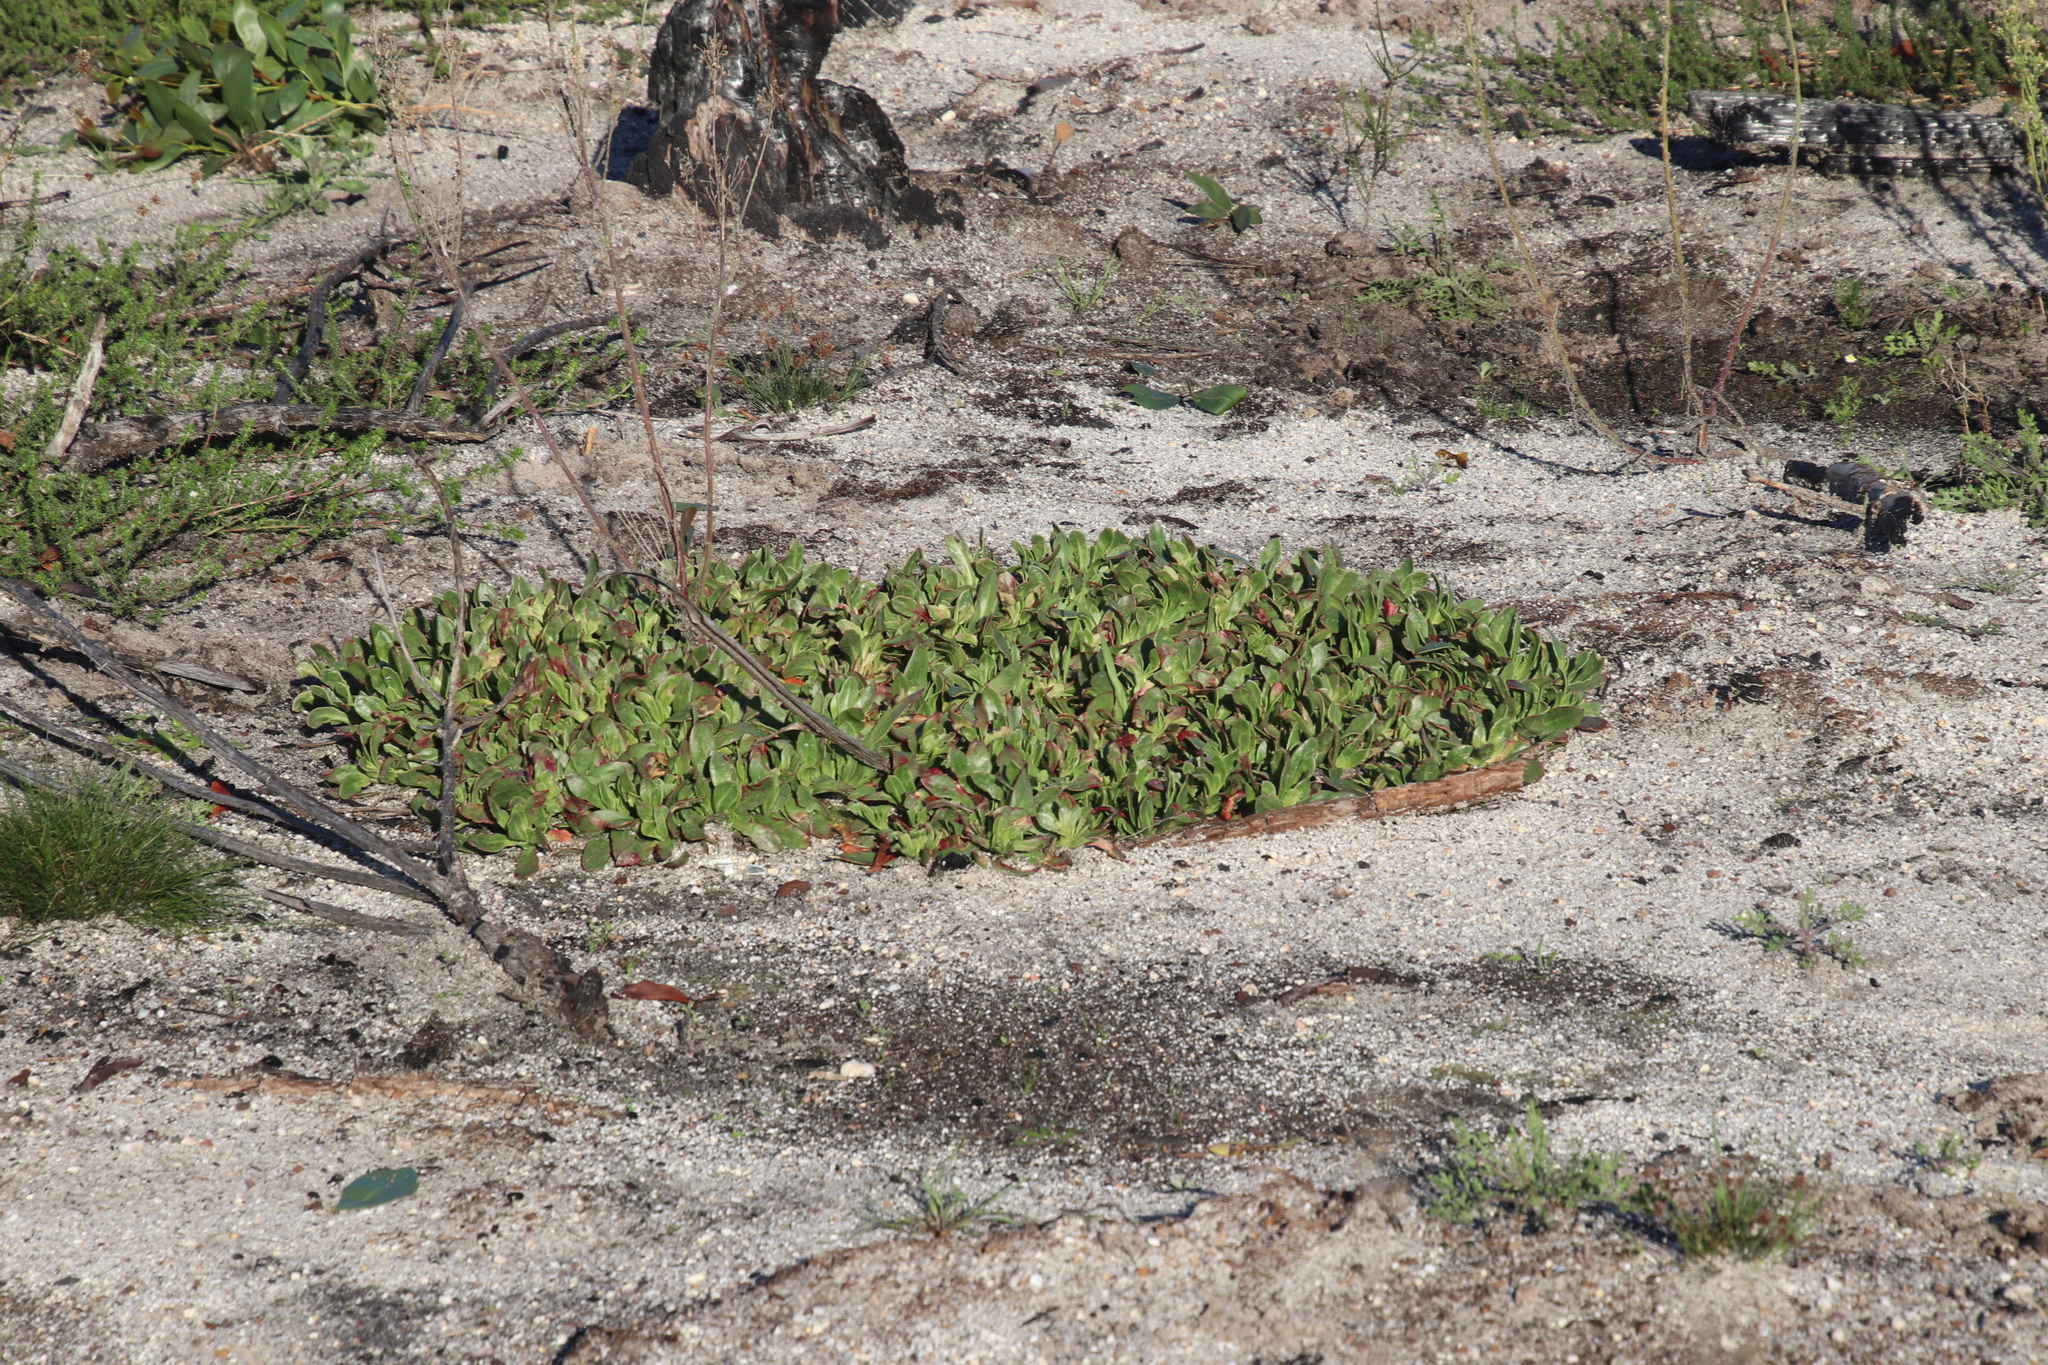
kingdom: Plantae
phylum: Tracheophyta
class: Magnoliopsida
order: Caryophyllales
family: Aizoaceae
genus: Skiatophytum
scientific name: Skiatophytum tripolium
